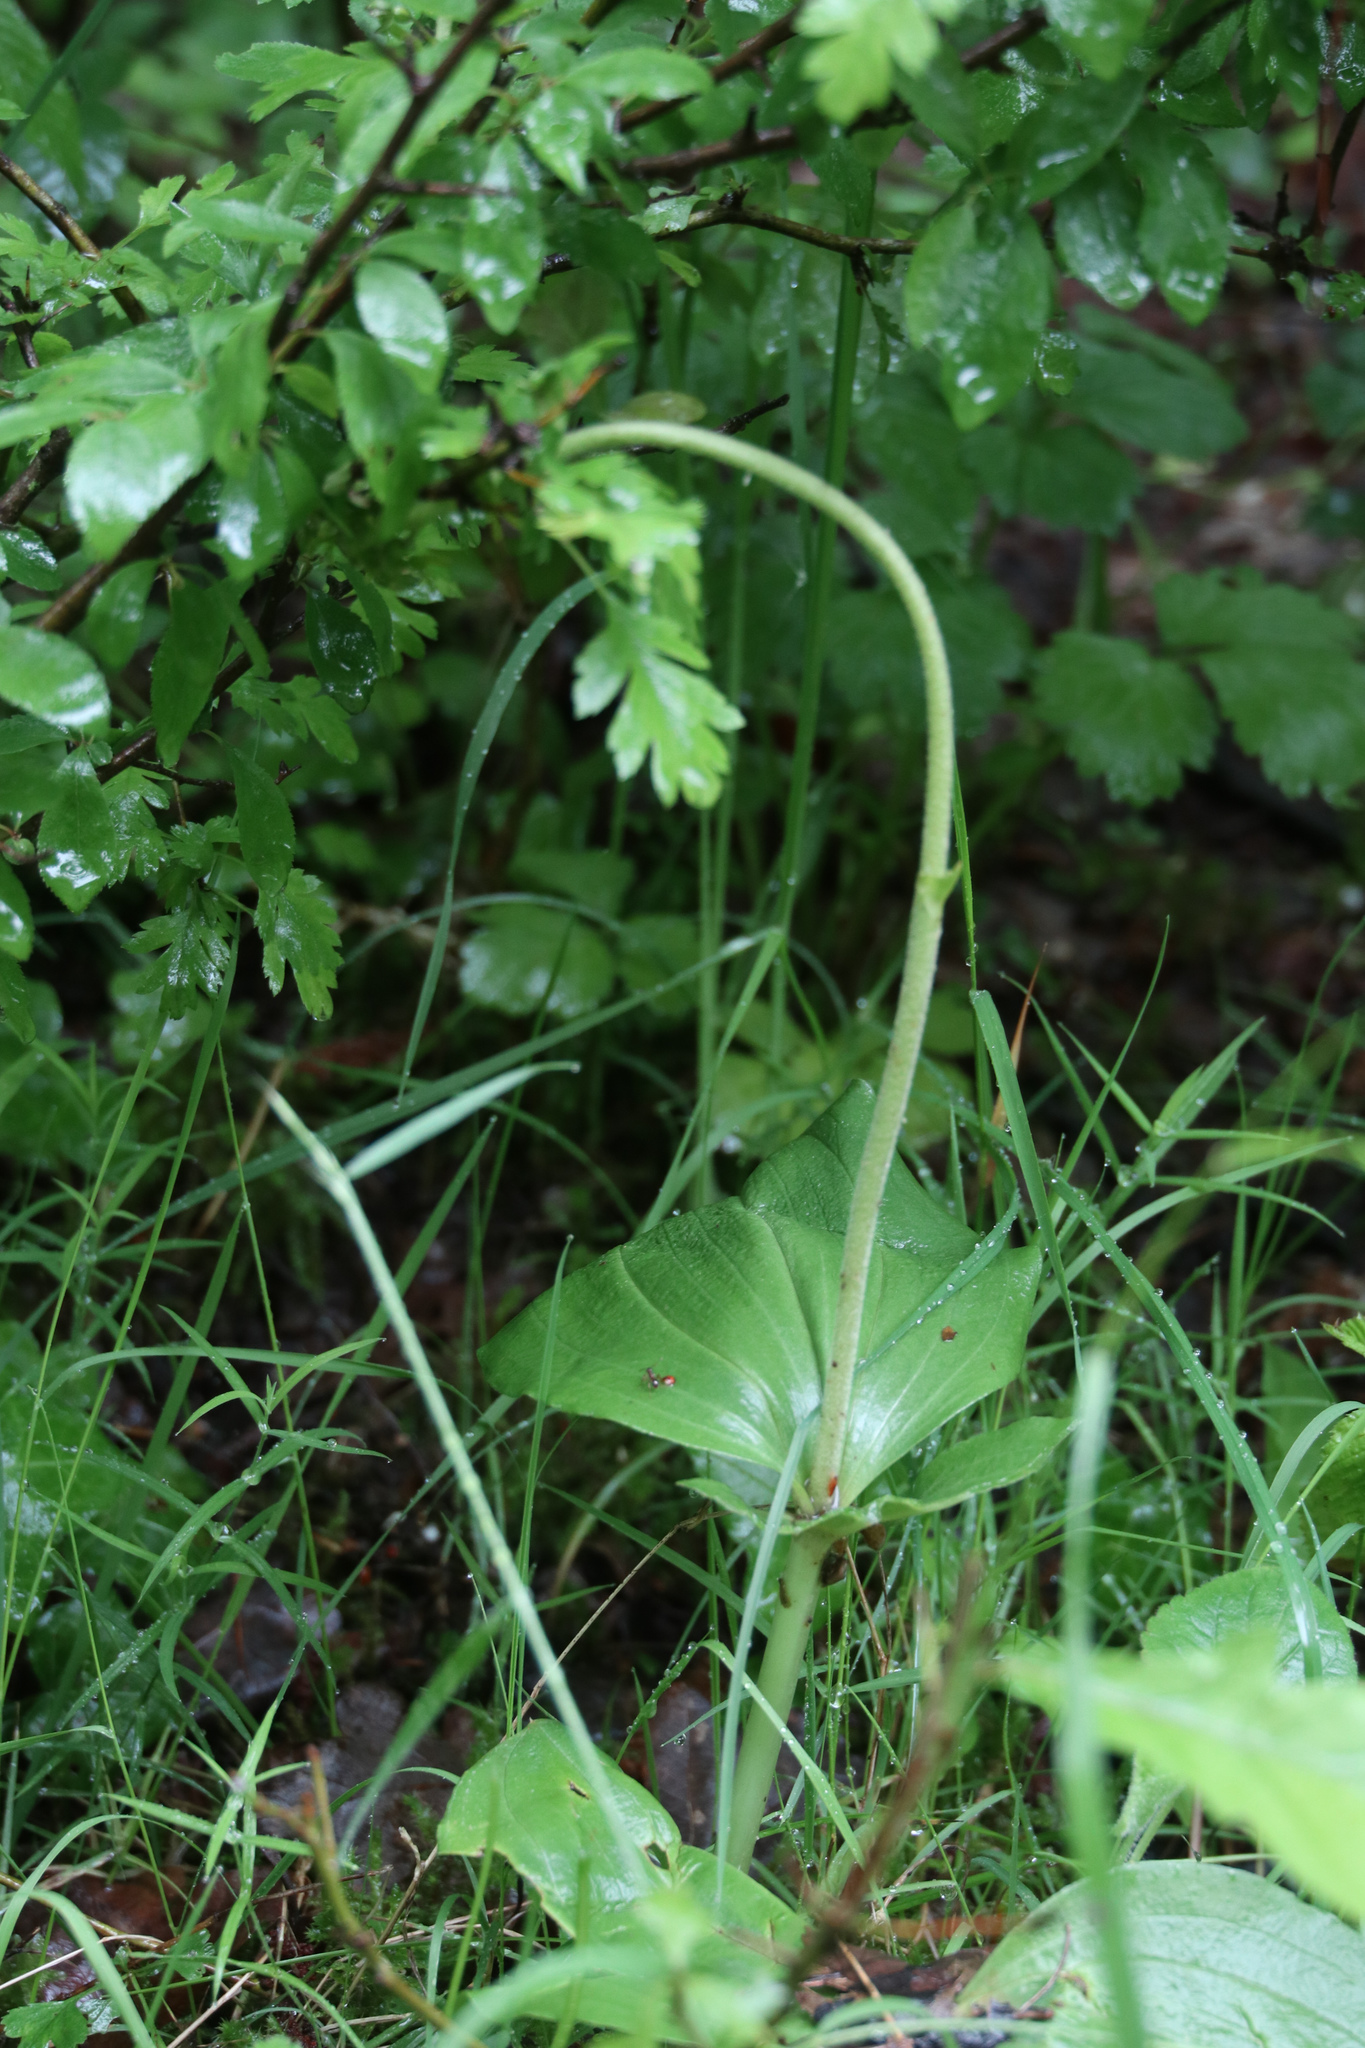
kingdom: Plantae
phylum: Tracheophyta
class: Liliopsida
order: Asparagales
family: Orchidaceae
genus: Neottia
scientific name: Neottia ovata
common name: Common twayblade
